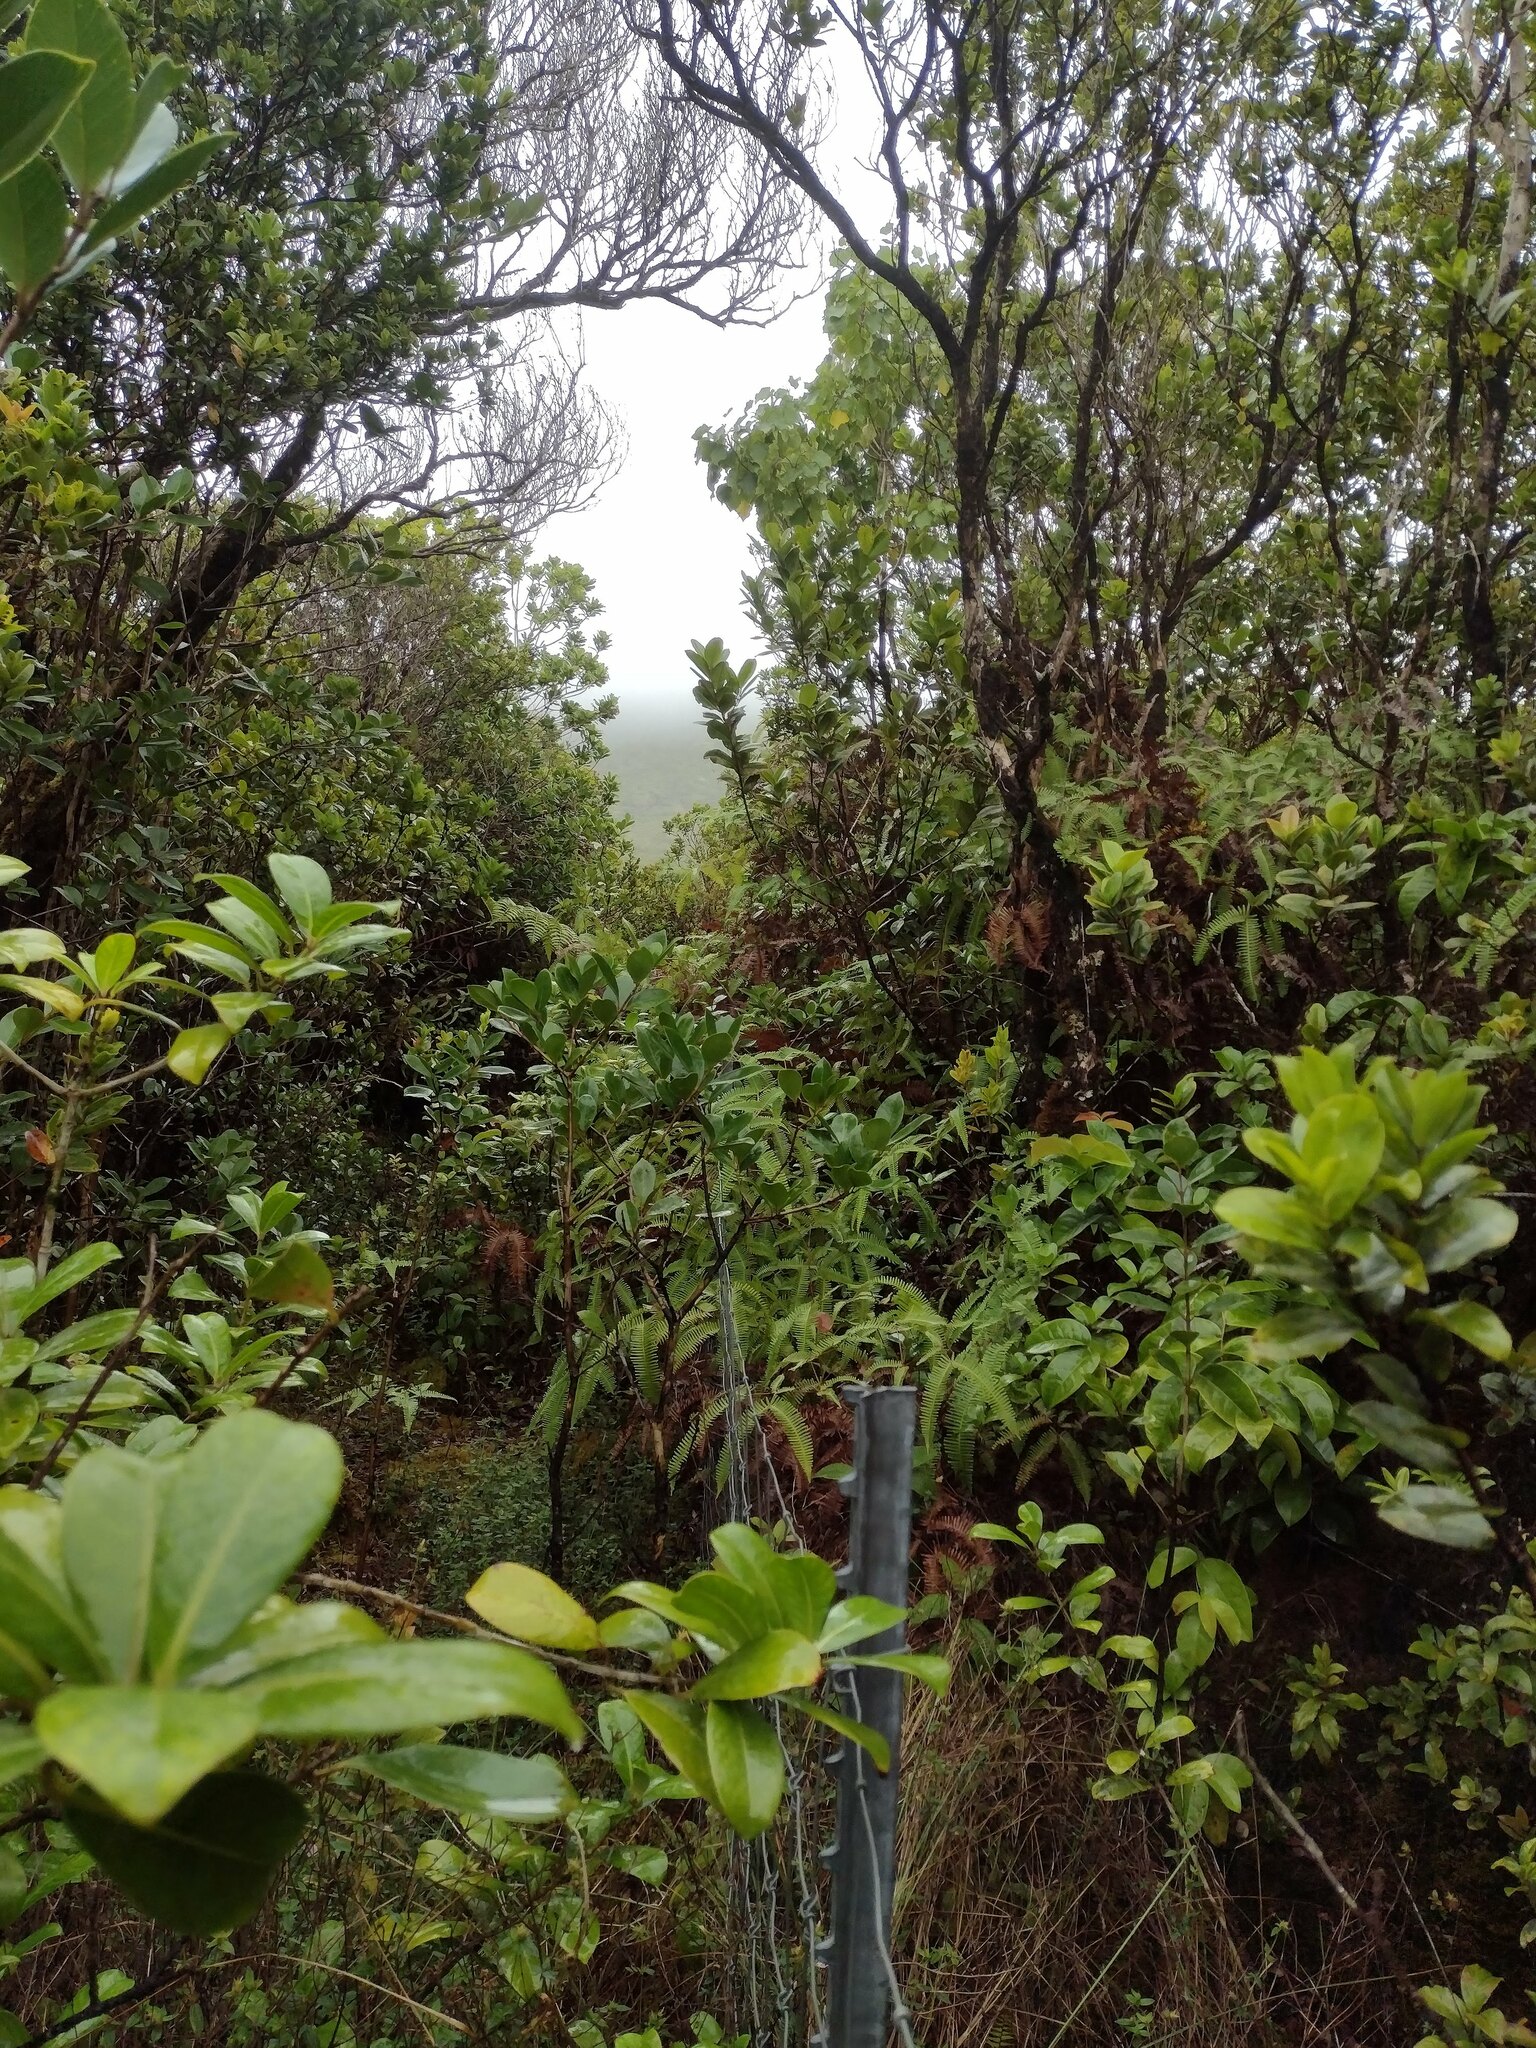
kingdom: Plantae
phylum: Tracheophyta
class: Magnoliopsida
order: Myrtales
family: Myrtaceae
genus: Metrosideros
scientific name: Metrosideros polymorpha
